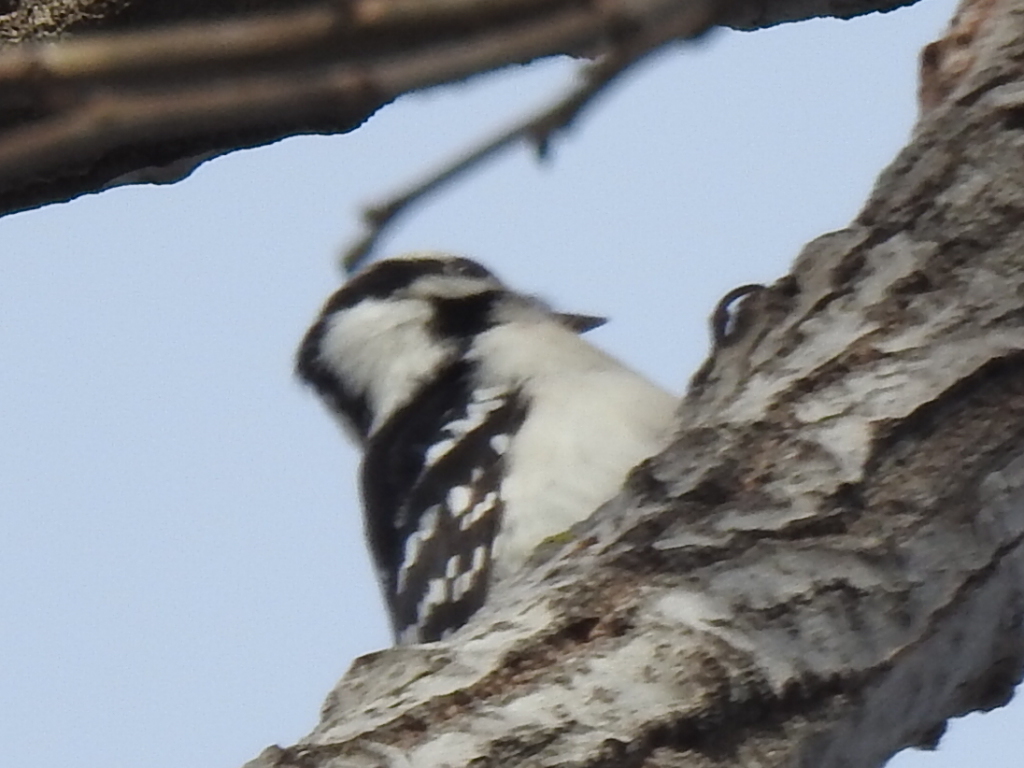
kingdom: Animalia
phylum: Chordata
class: Aves
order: Piciformes
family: Picidae
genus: Dryobates
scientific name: Dryobates pubescens
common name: Downy woodpecker
